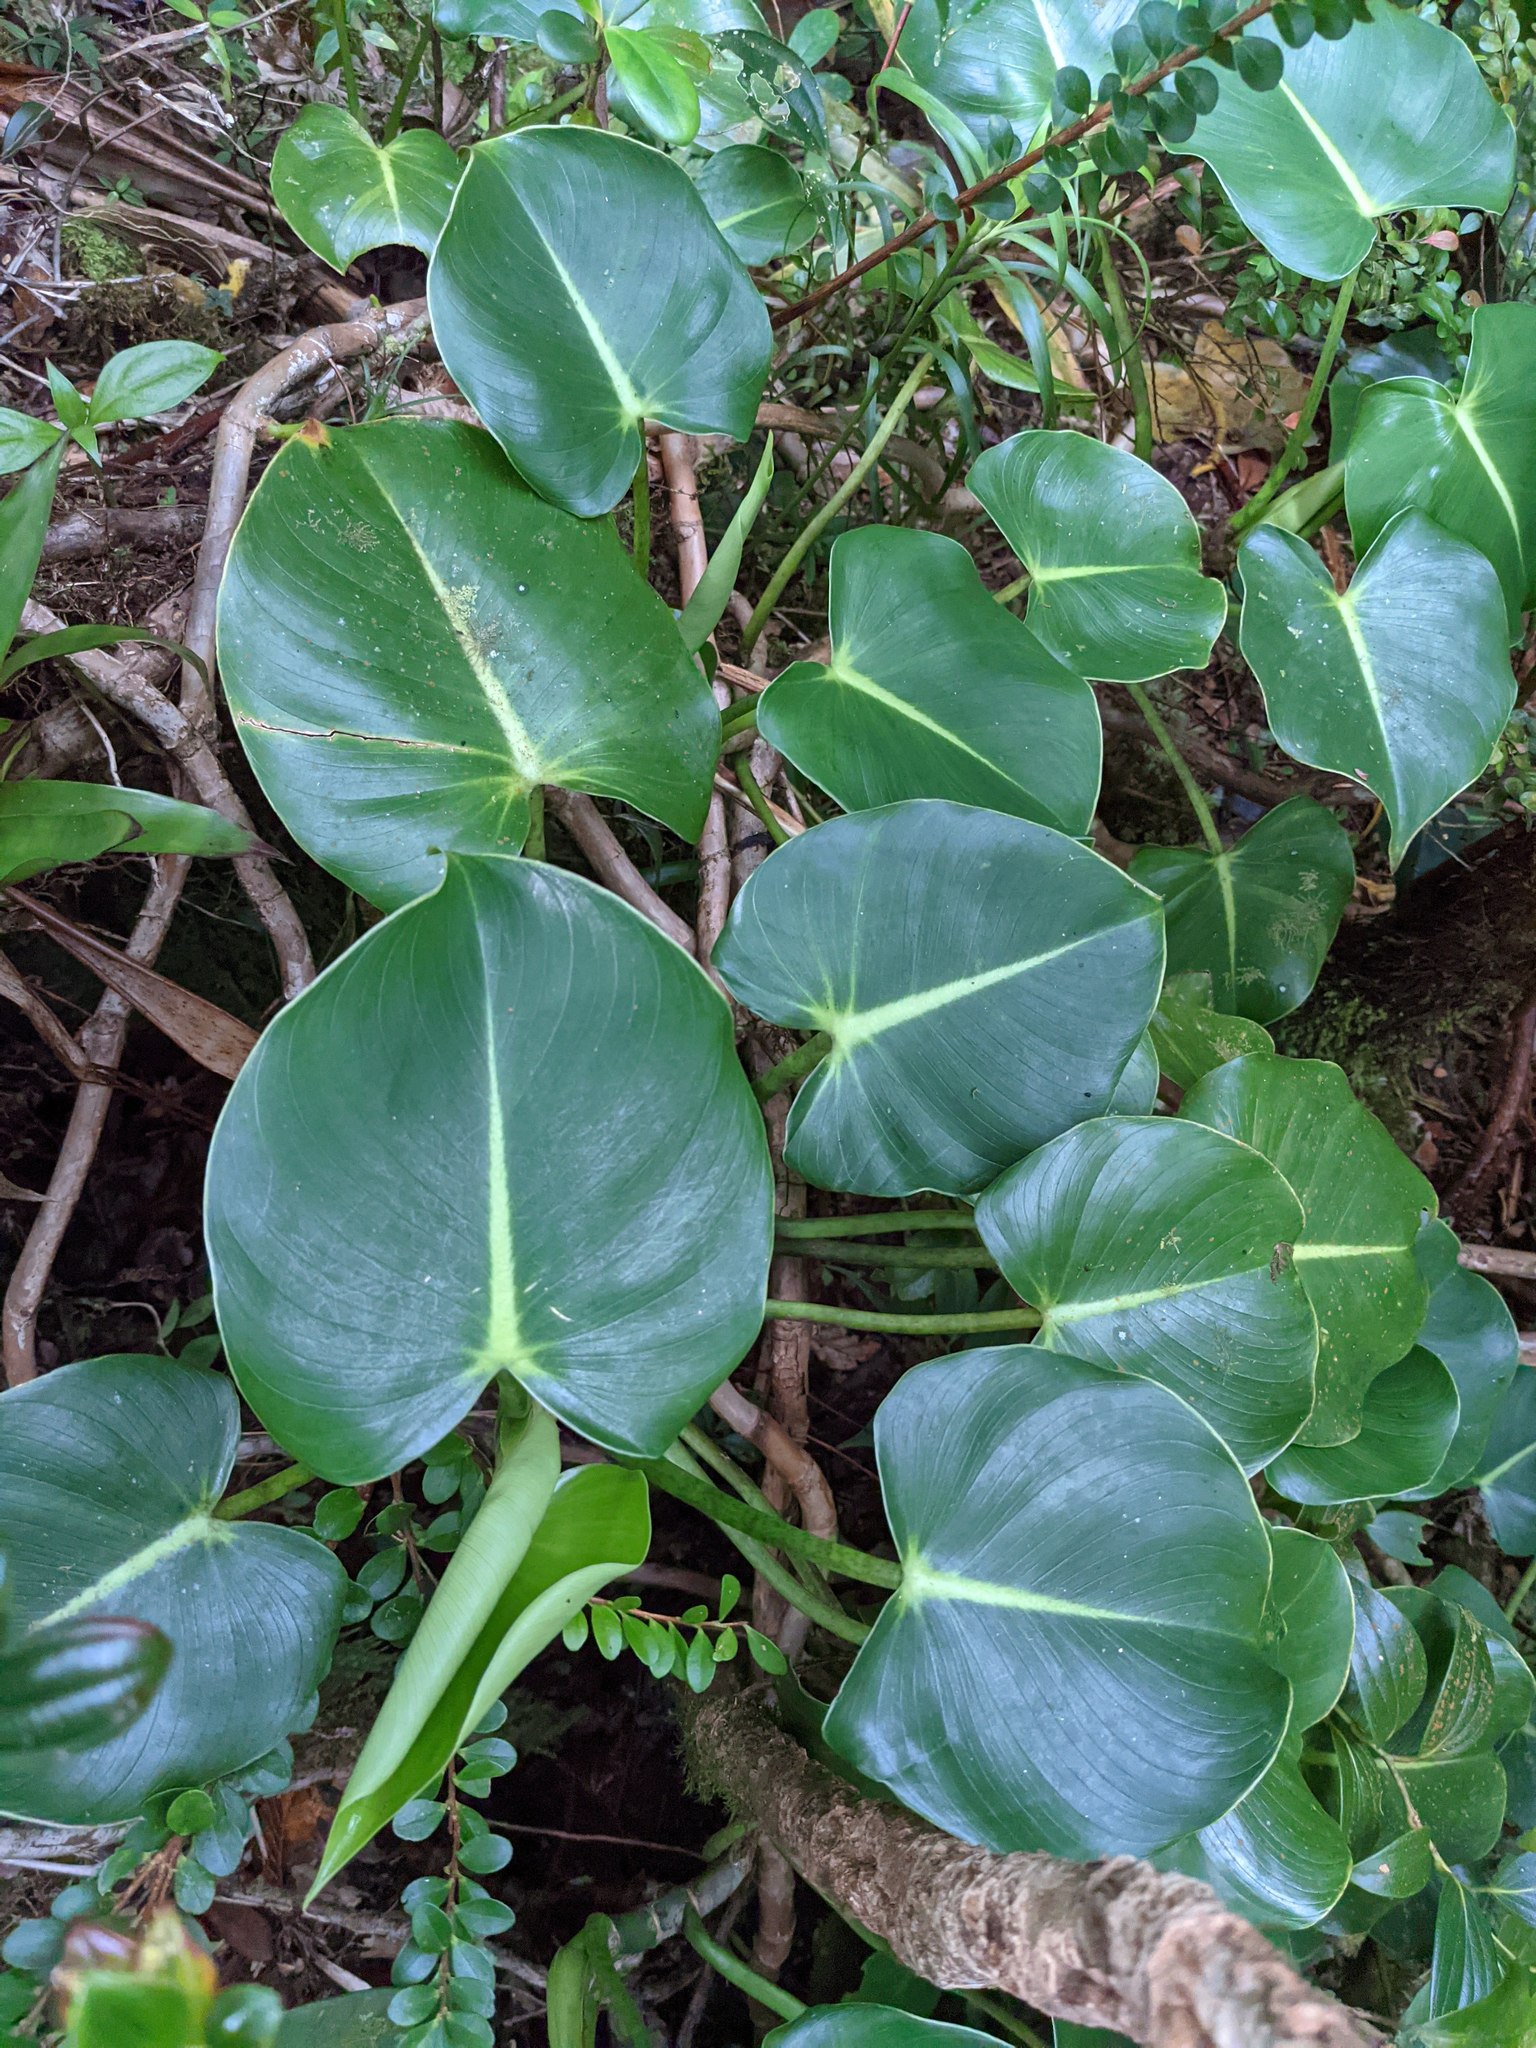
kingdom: Plantae
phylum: Tracheophyta
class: Liliopsida
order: Alismatales
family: Araceae
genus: Philodendron
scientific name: Philodendron crassispathum
